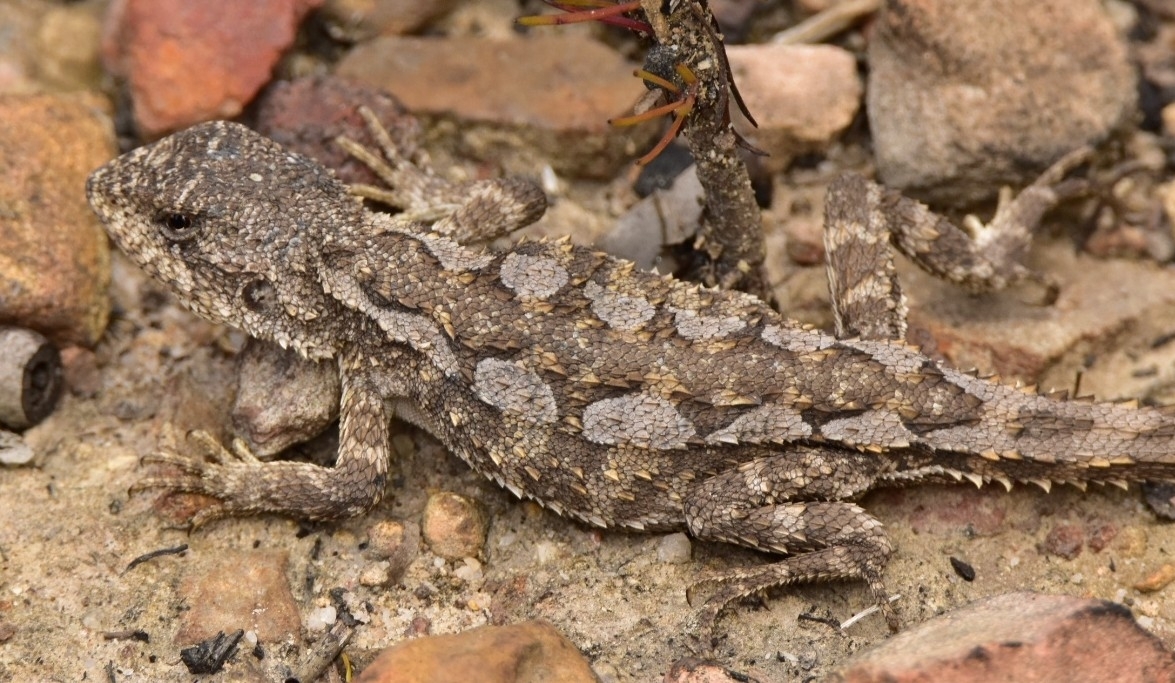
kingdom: Animalia
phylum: Chordata
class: Squamata
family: Agamidae
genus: Rankinia
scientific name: Rankinia diemensis
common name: Mountain dragon
